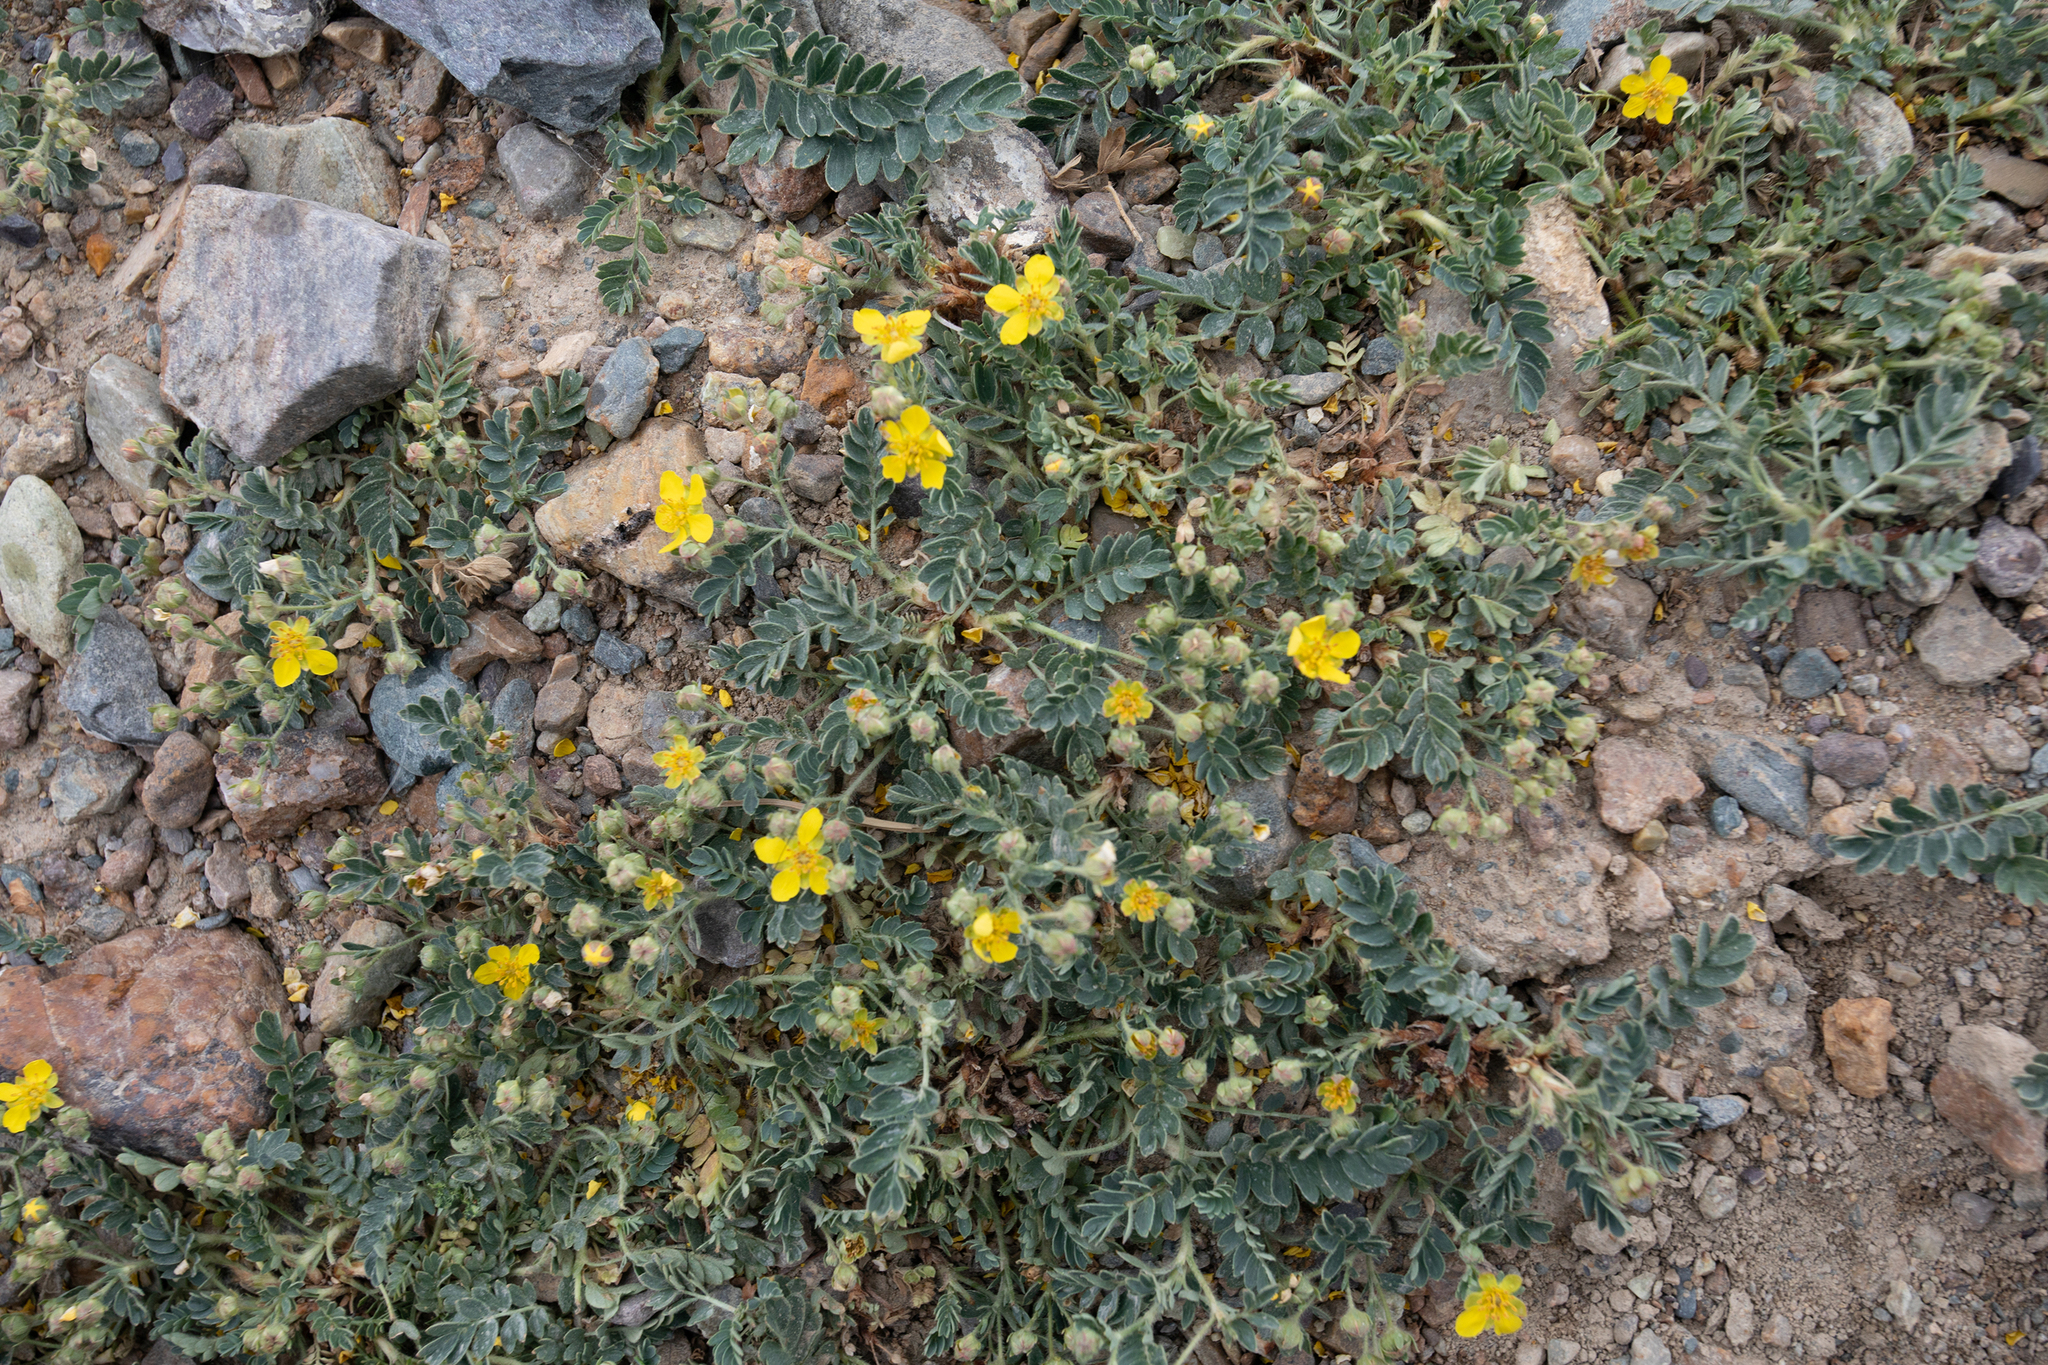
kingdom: Plantae
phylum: Tracheophyta
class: Magnoliopsida
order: Rosales
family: Rosaceae
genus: Sibbaldianthe
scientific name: Sibbaldianthe bifurca
